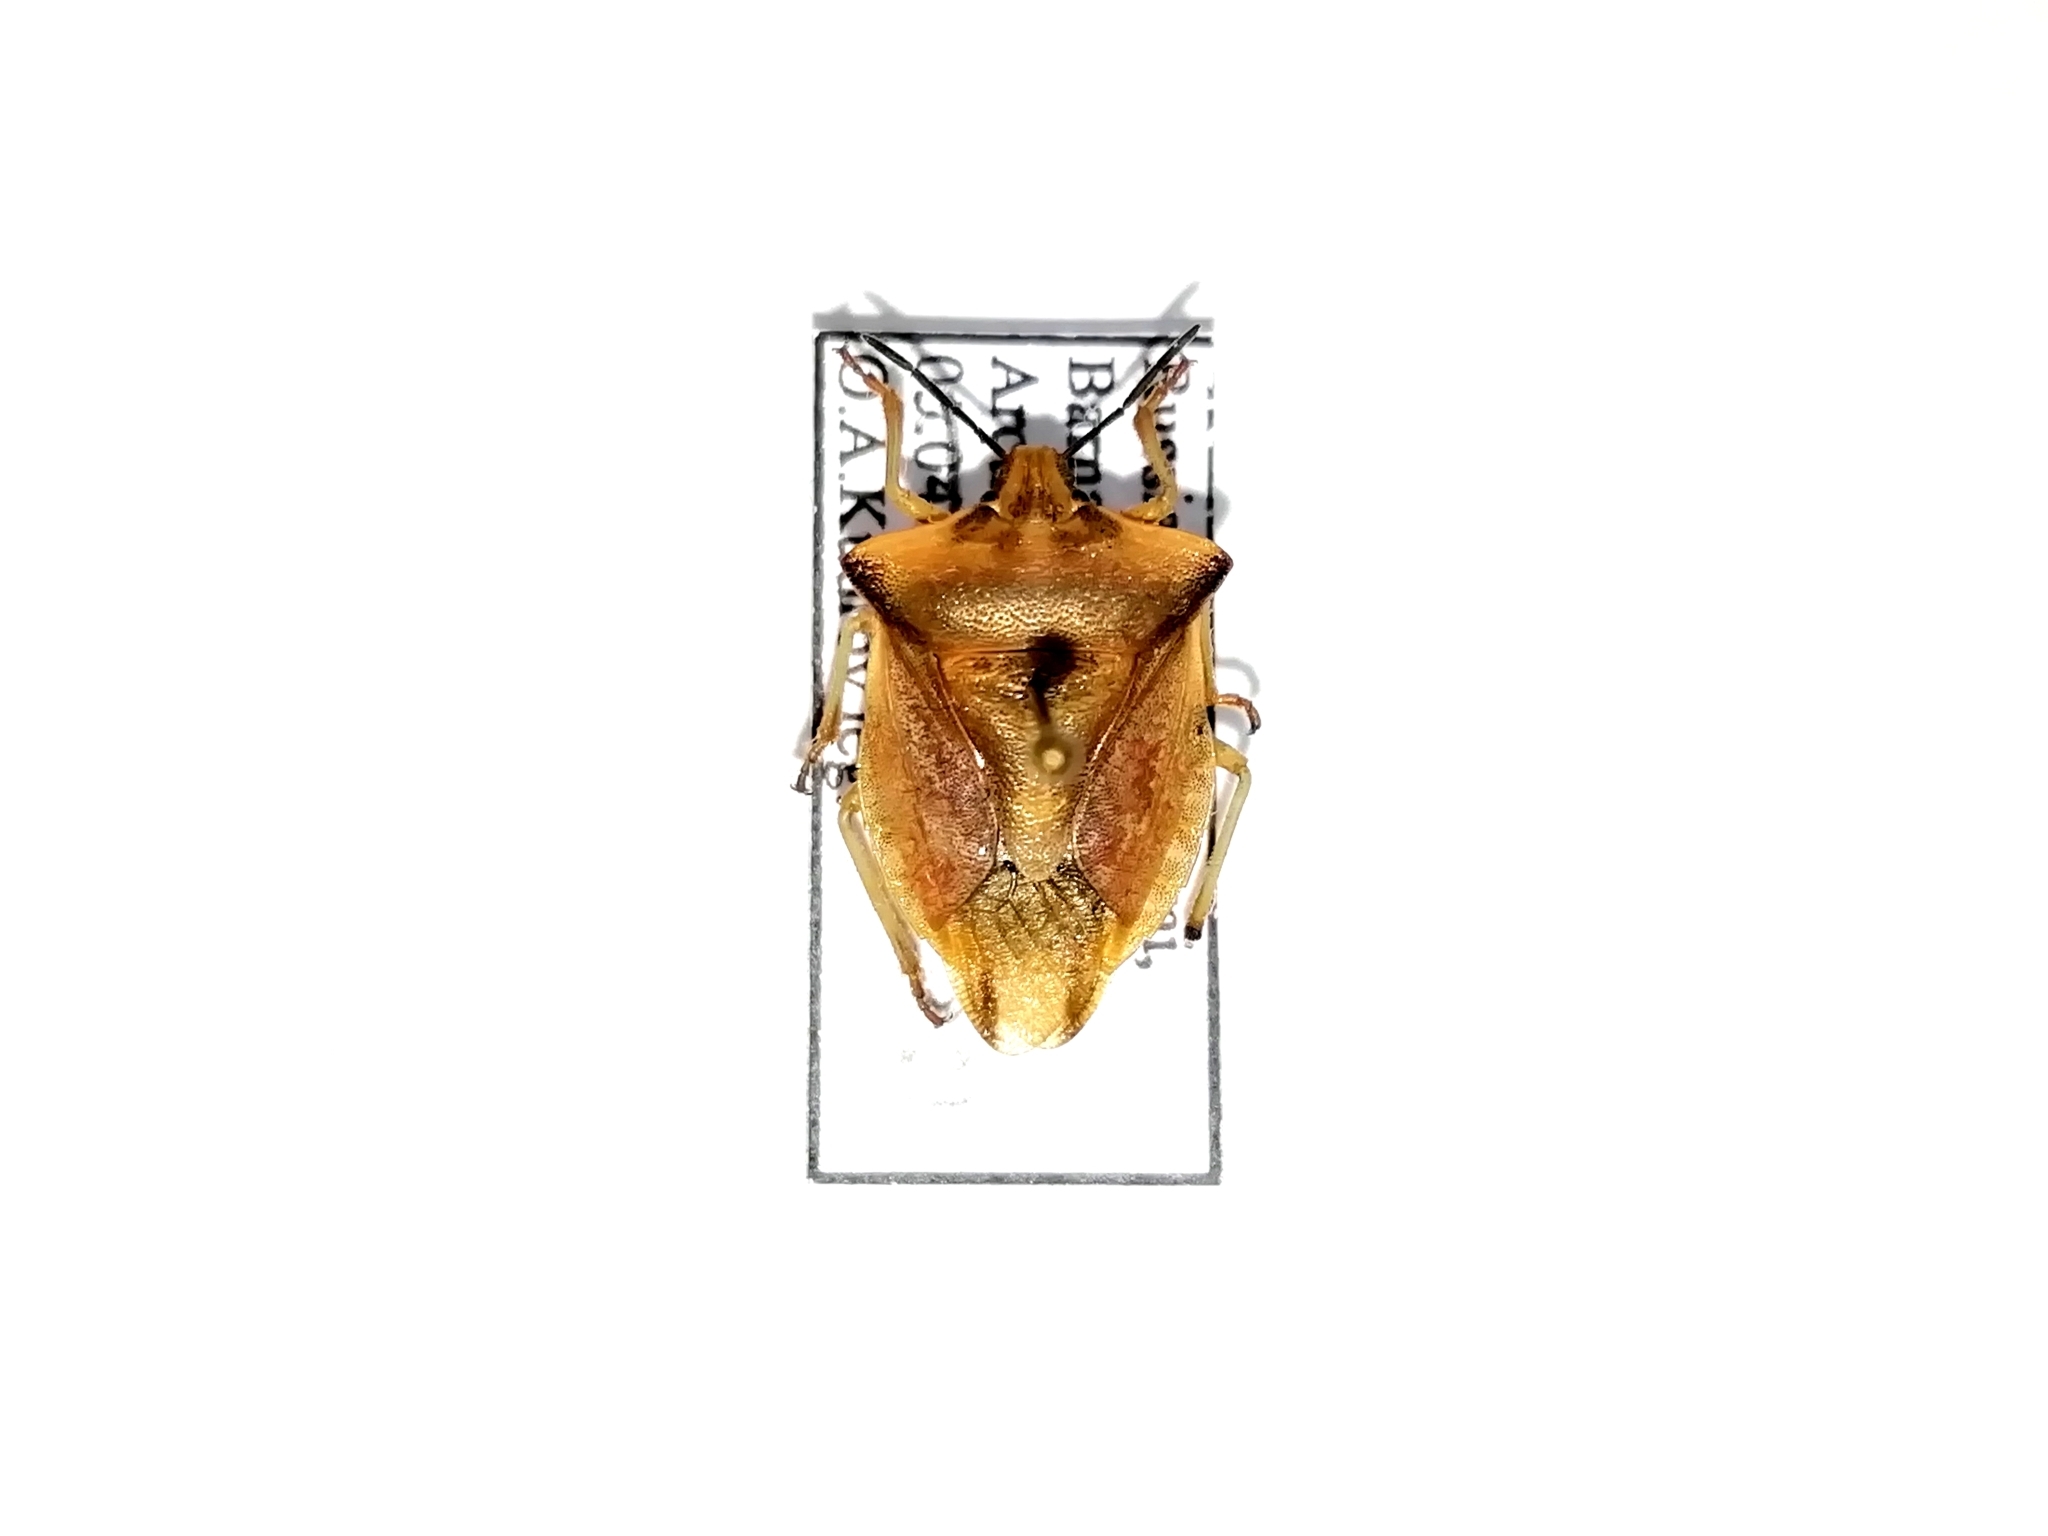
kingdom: Animalia
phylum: Arthropoda
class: Insecta
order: Hemiptera
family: Pentatomidae
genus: Carpocoris
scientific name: Carpocoris purpureipennis
